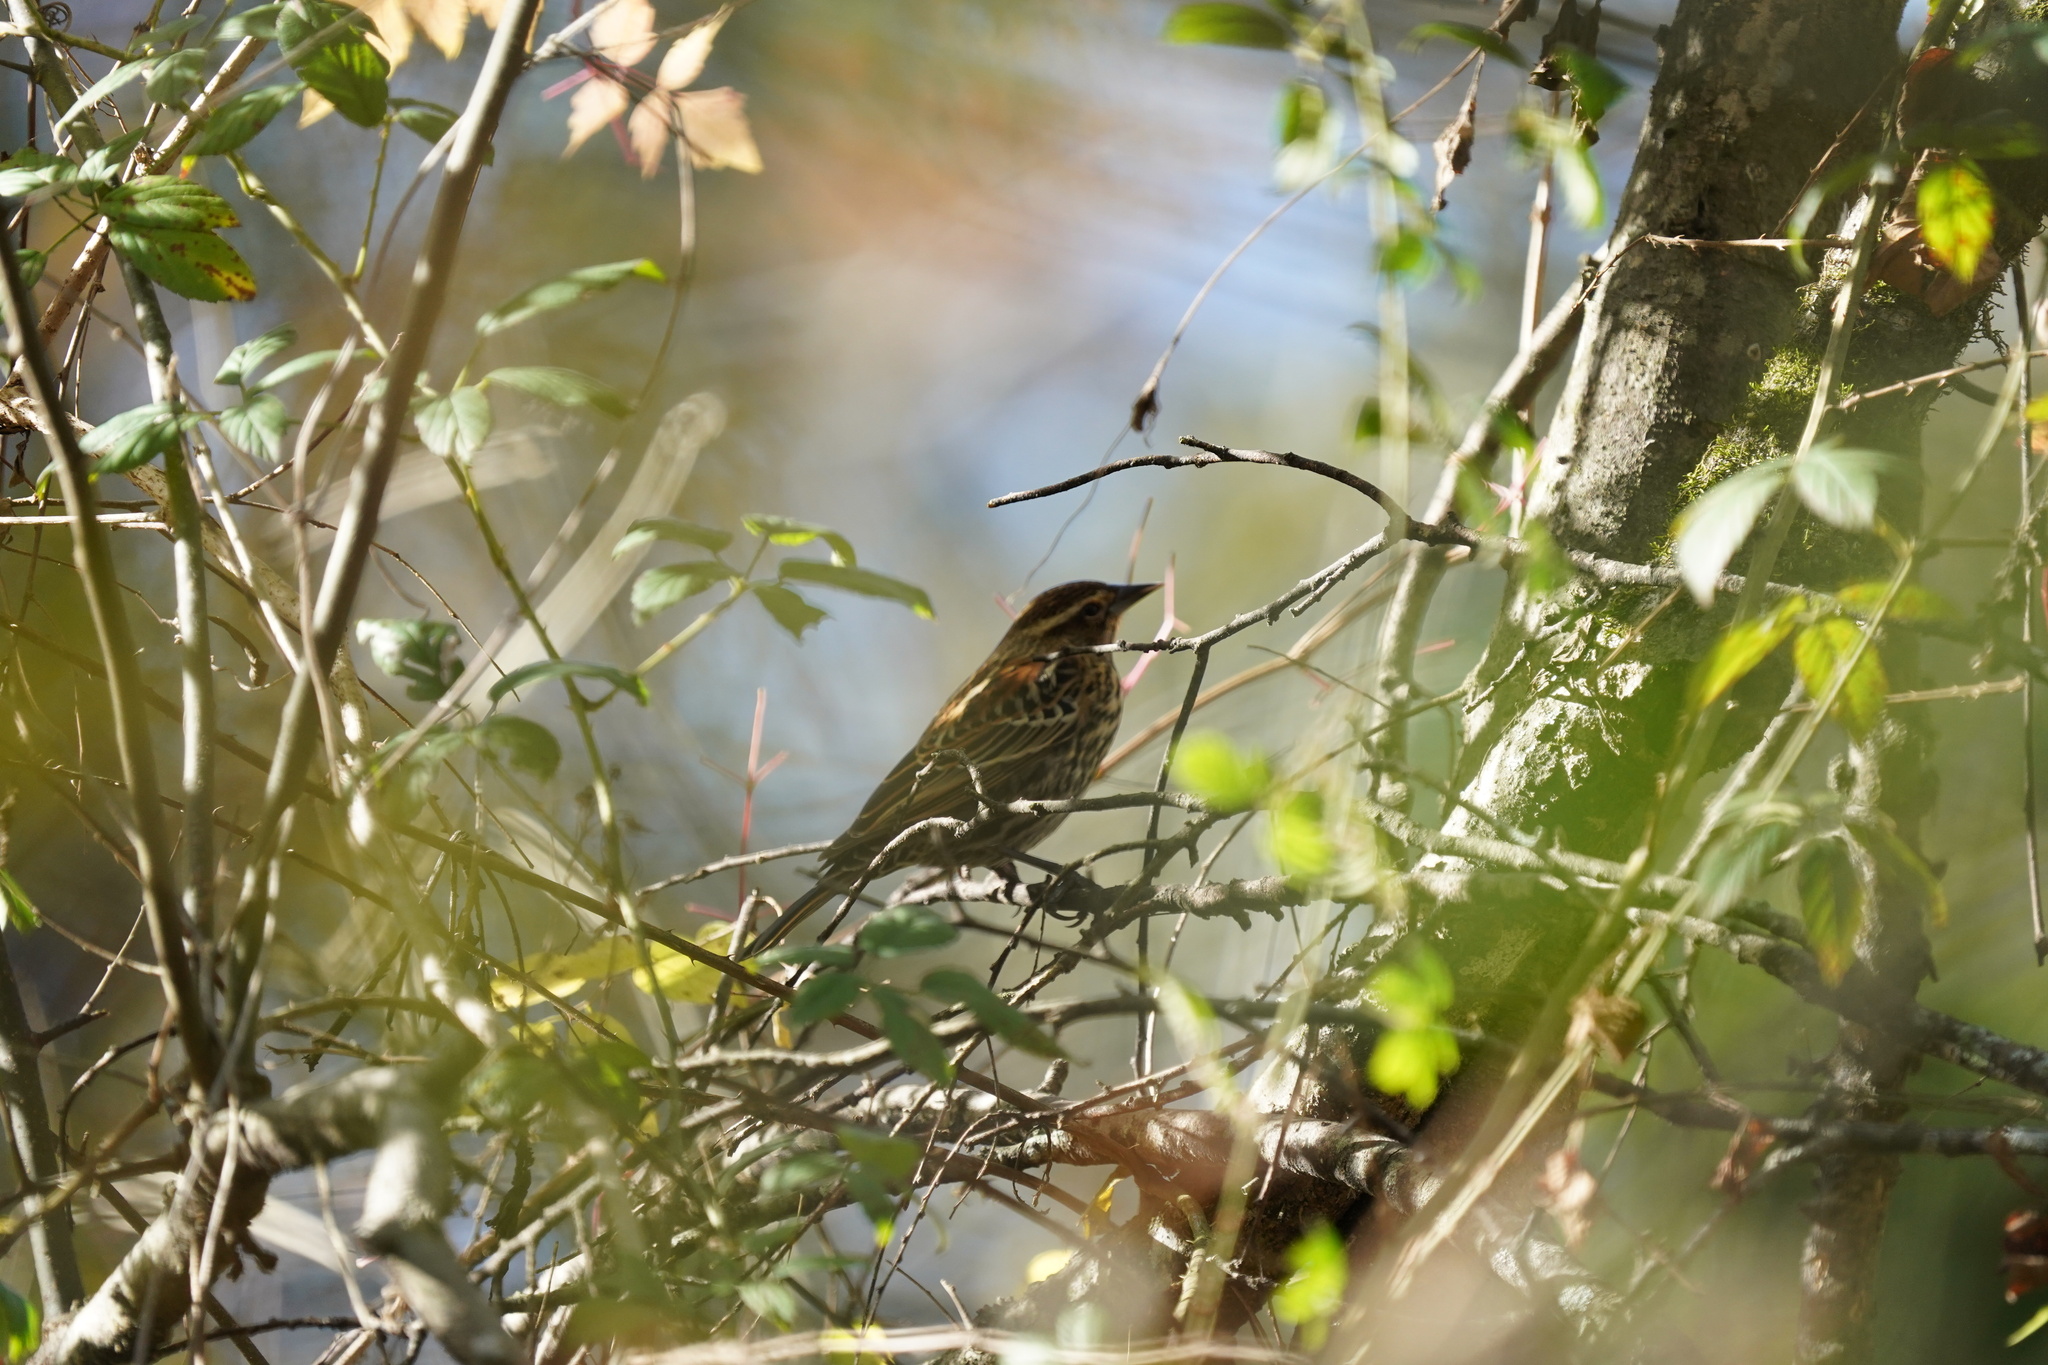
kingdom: Animalia
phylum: Chordata
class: Aves
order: Passeriformes
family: Icteridae
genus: Agelaius
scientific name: Agelaius phoeniceus
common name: Red-winged blackbird
